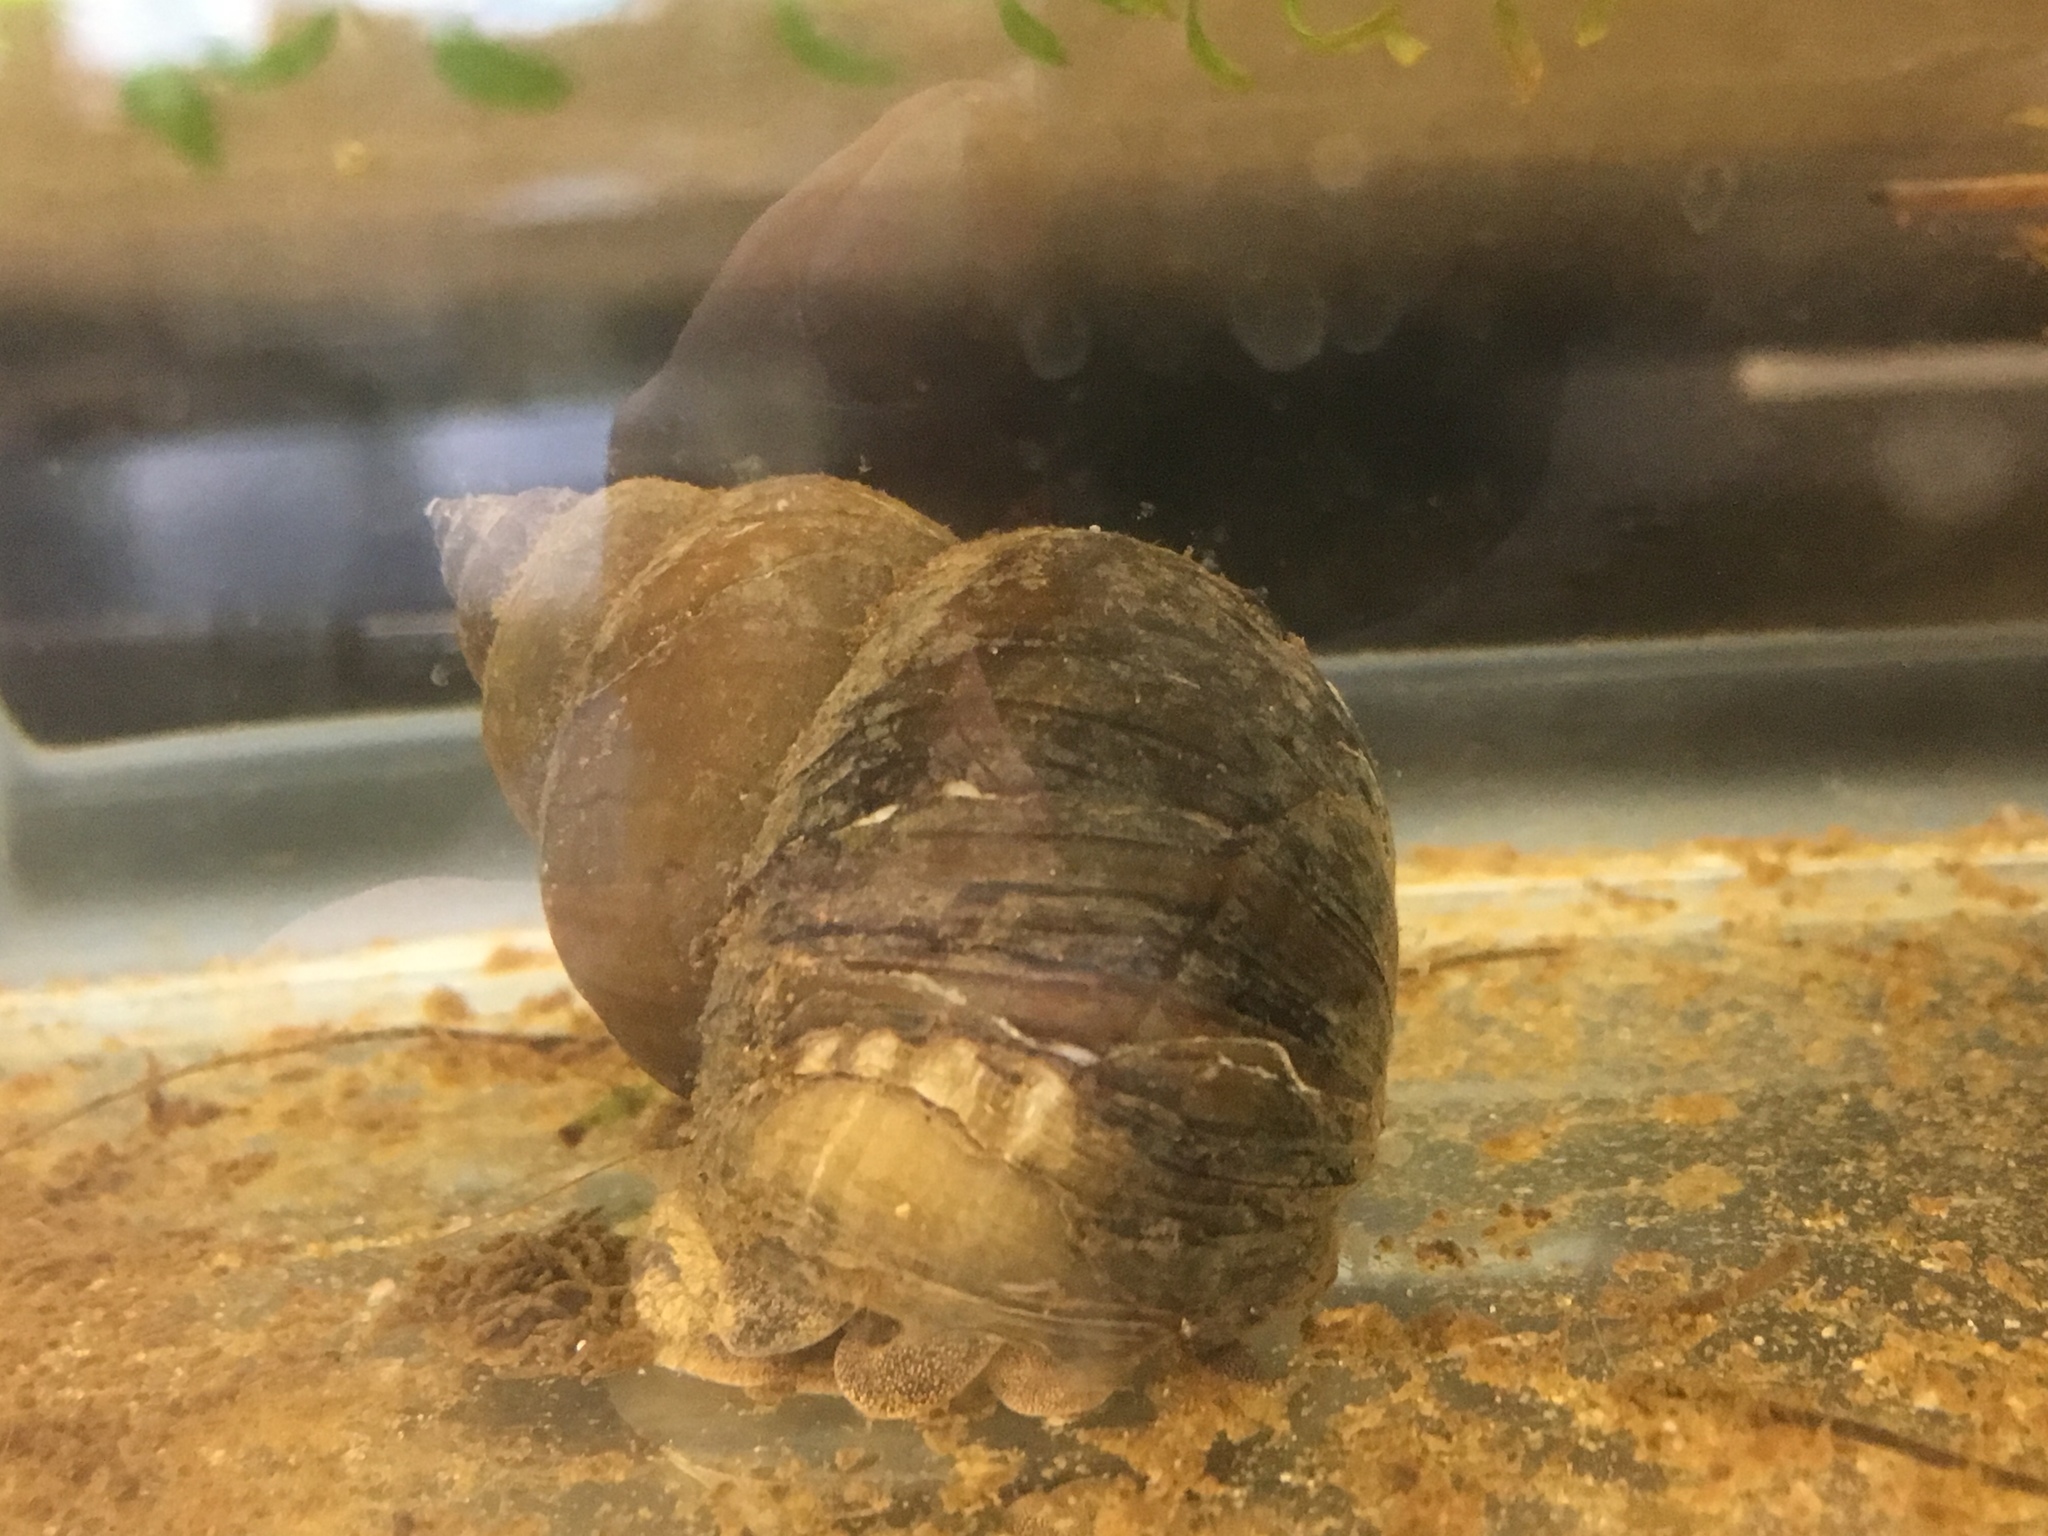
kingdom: Animalia
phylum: Mollusca
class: Gastropoda
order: Architaenioglossa
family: Viviparidae
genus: Cipangopaludina
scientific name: Cipangopaludina chinensis
